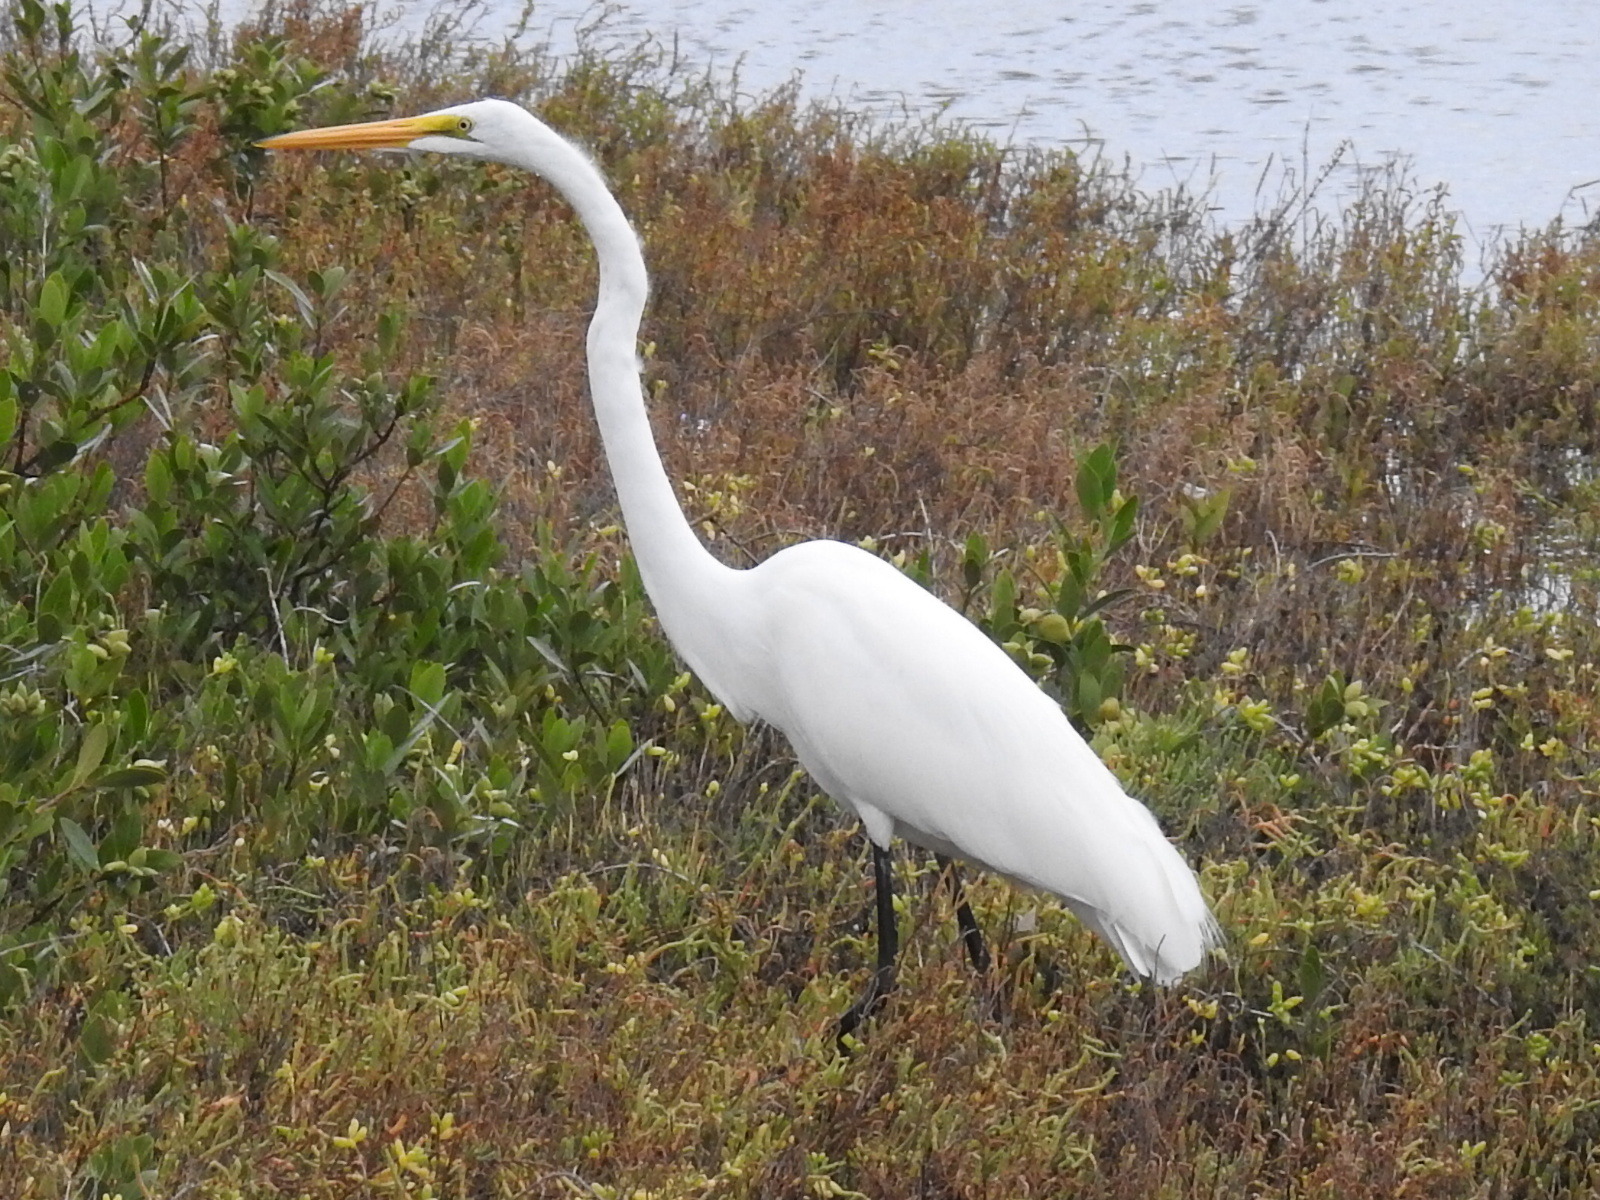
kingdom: Animalia
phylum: Chordata
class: Aves
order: Pelecaniformes
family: Ardeidae
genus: Ardea
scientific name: Ardea alba
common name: Great egret
